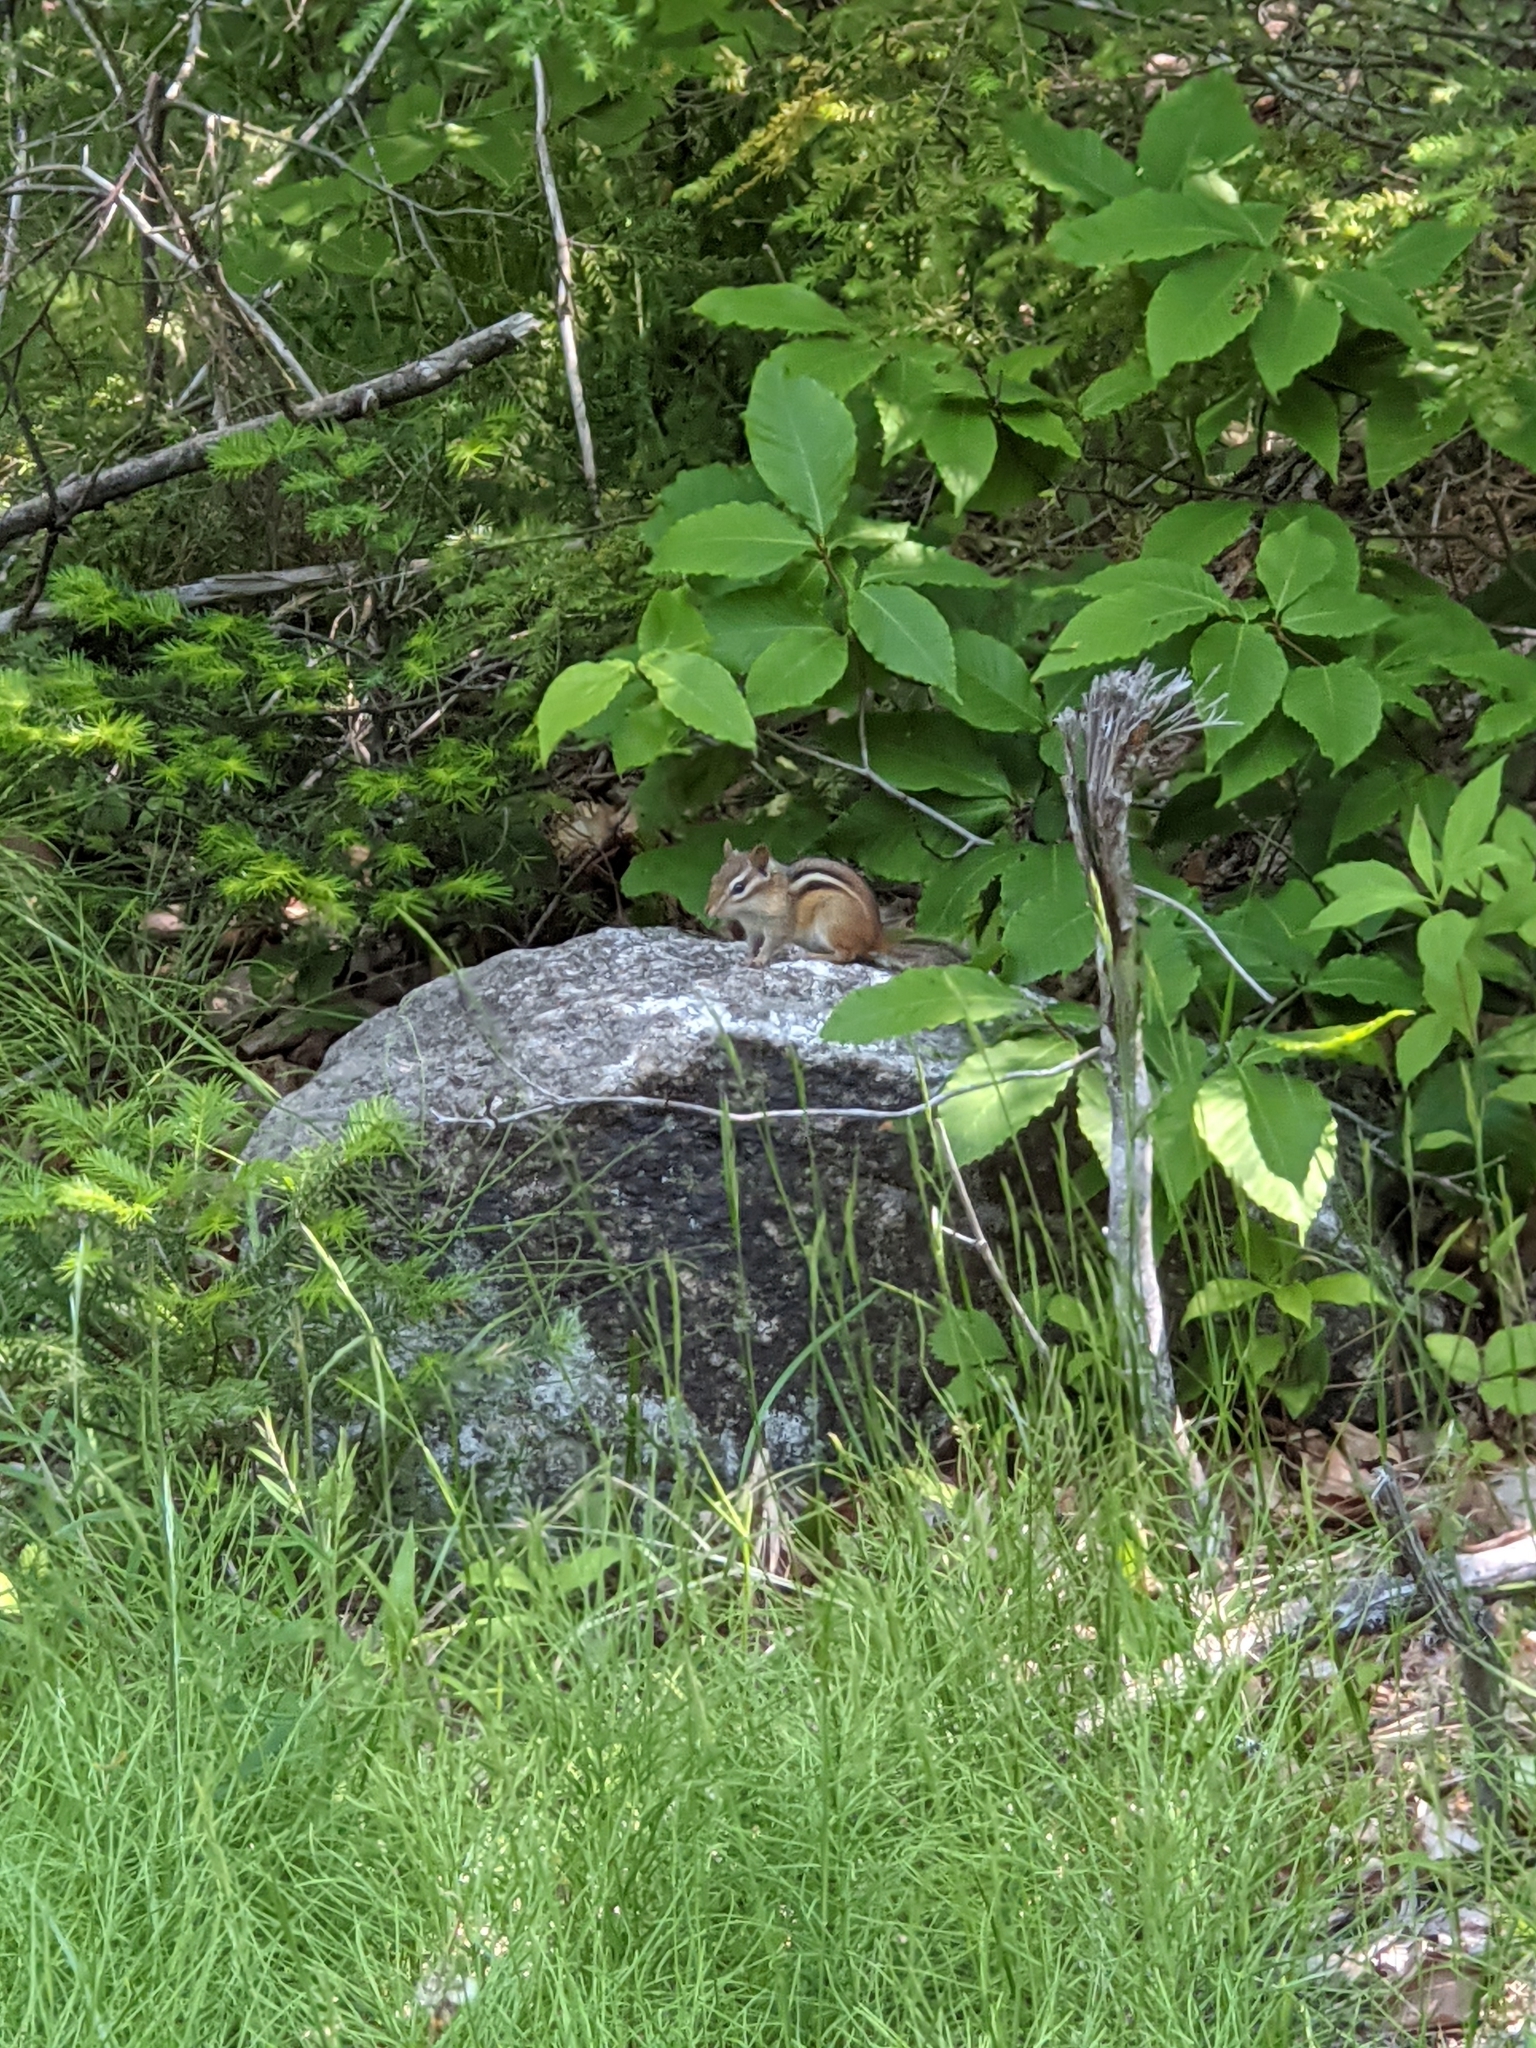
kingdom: Animalia
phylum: Chordata
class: Mammalia
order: Rodentia
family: Sciuridae
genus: Tamias
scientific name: Tamias striatus
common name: Eastern chipmunk
